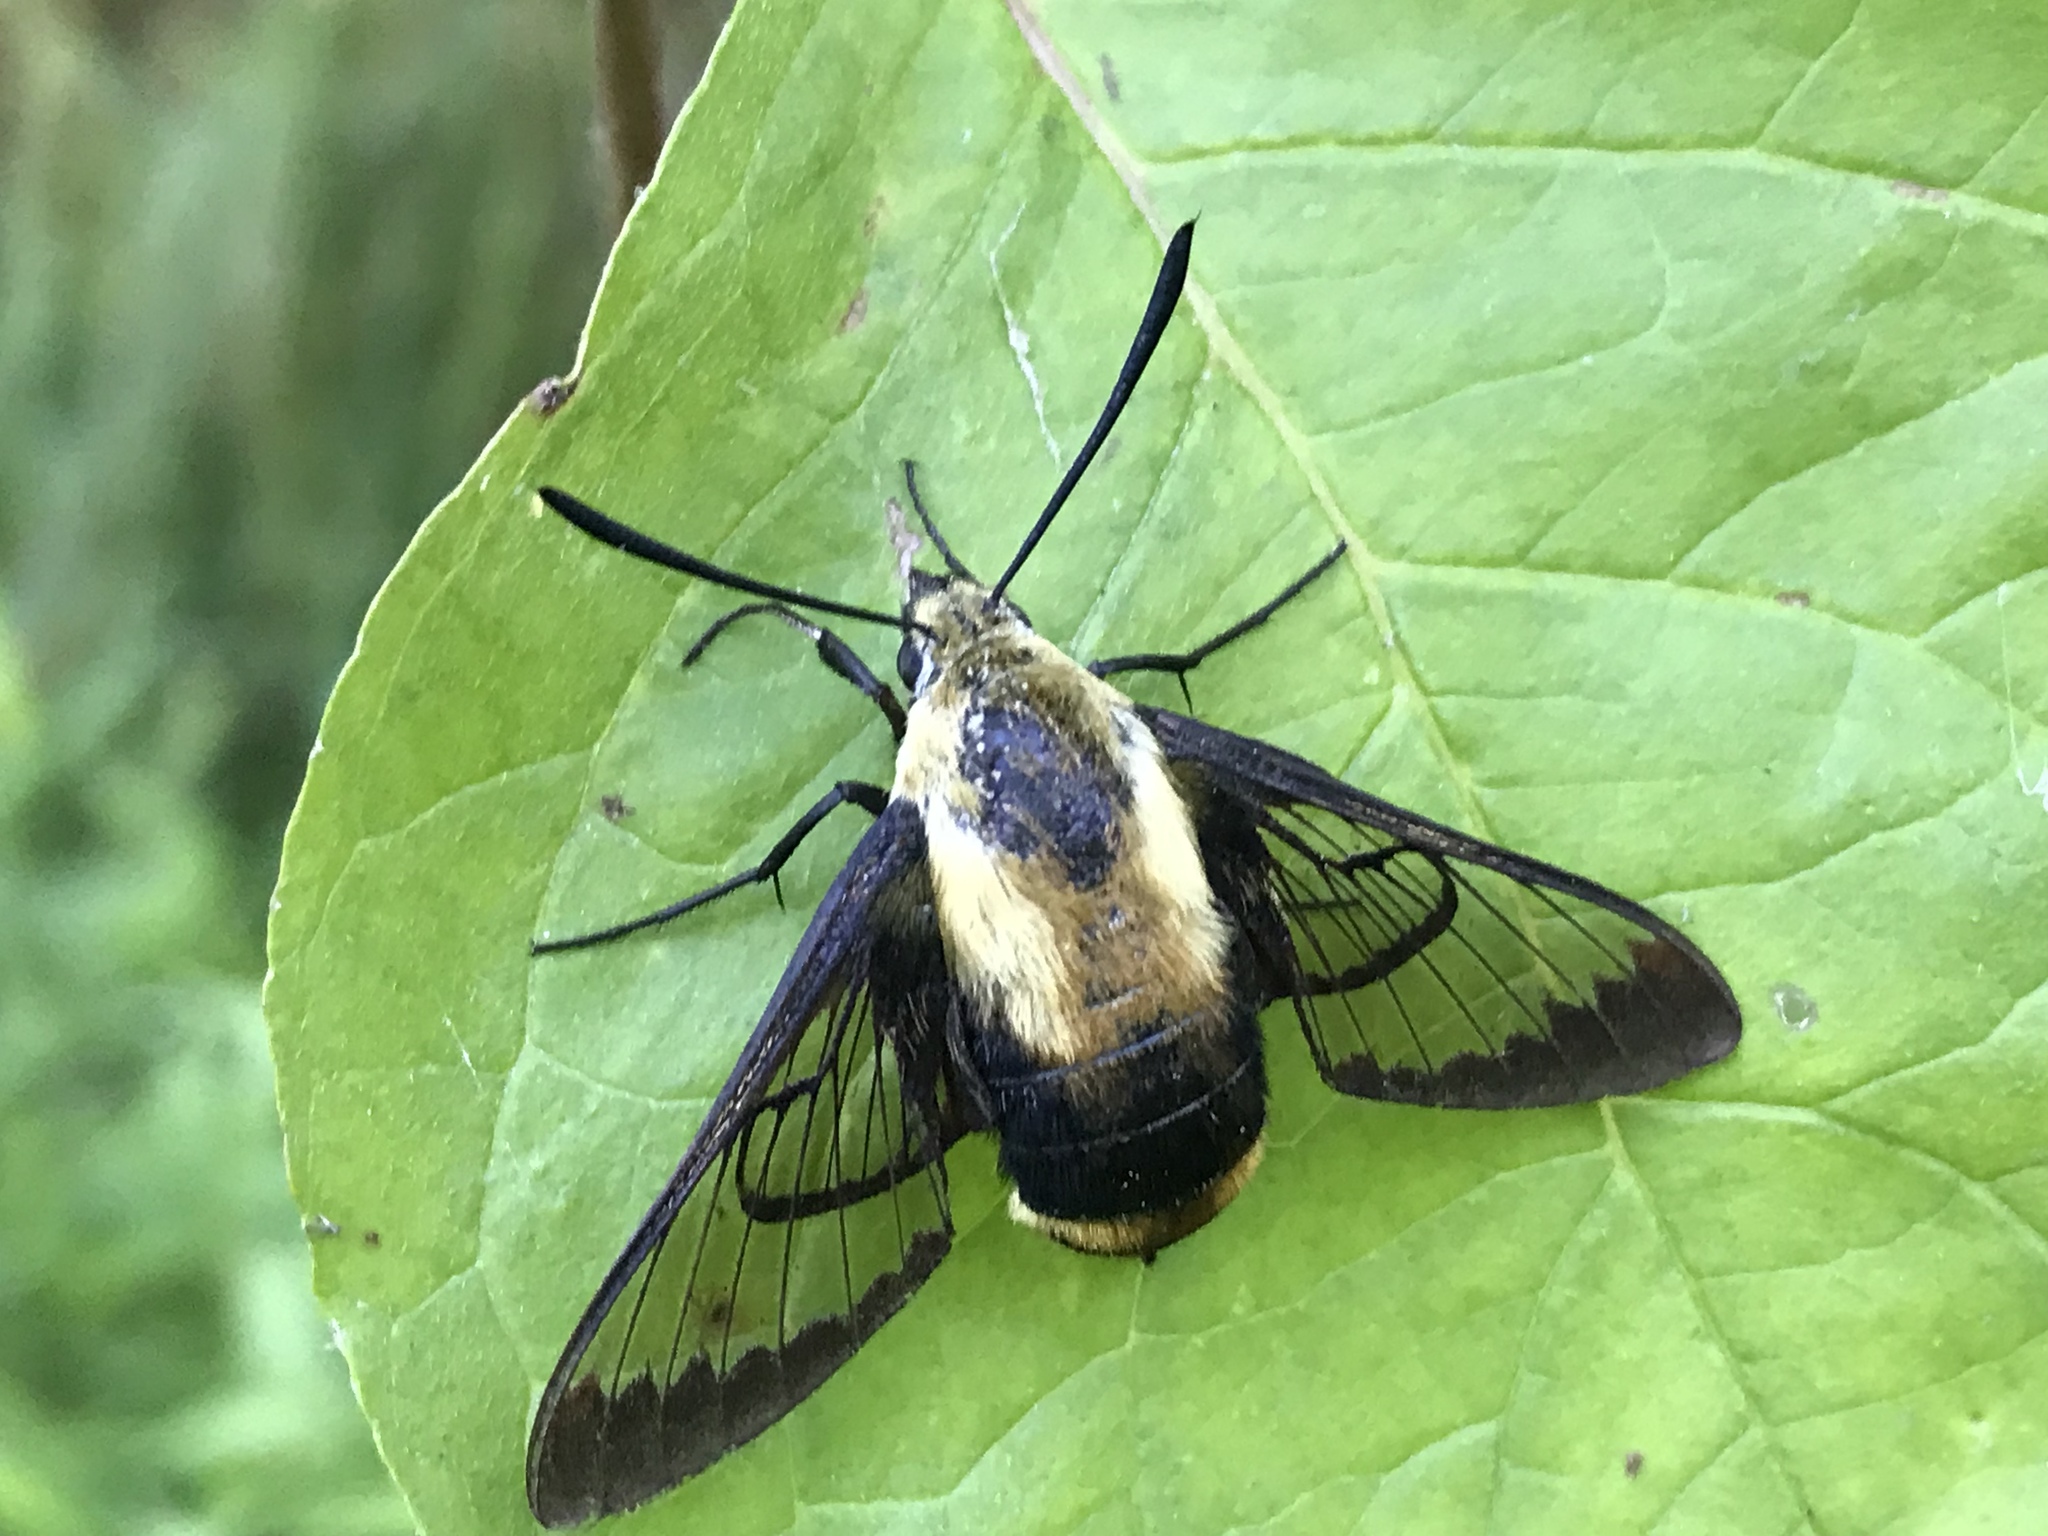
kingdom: Animalia
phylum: Arthropoda
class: Insecta
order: Lepidoptera
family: Sphingidae
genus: Hemaris
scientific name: Hemaris diffinis
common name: Bumblebee moth
